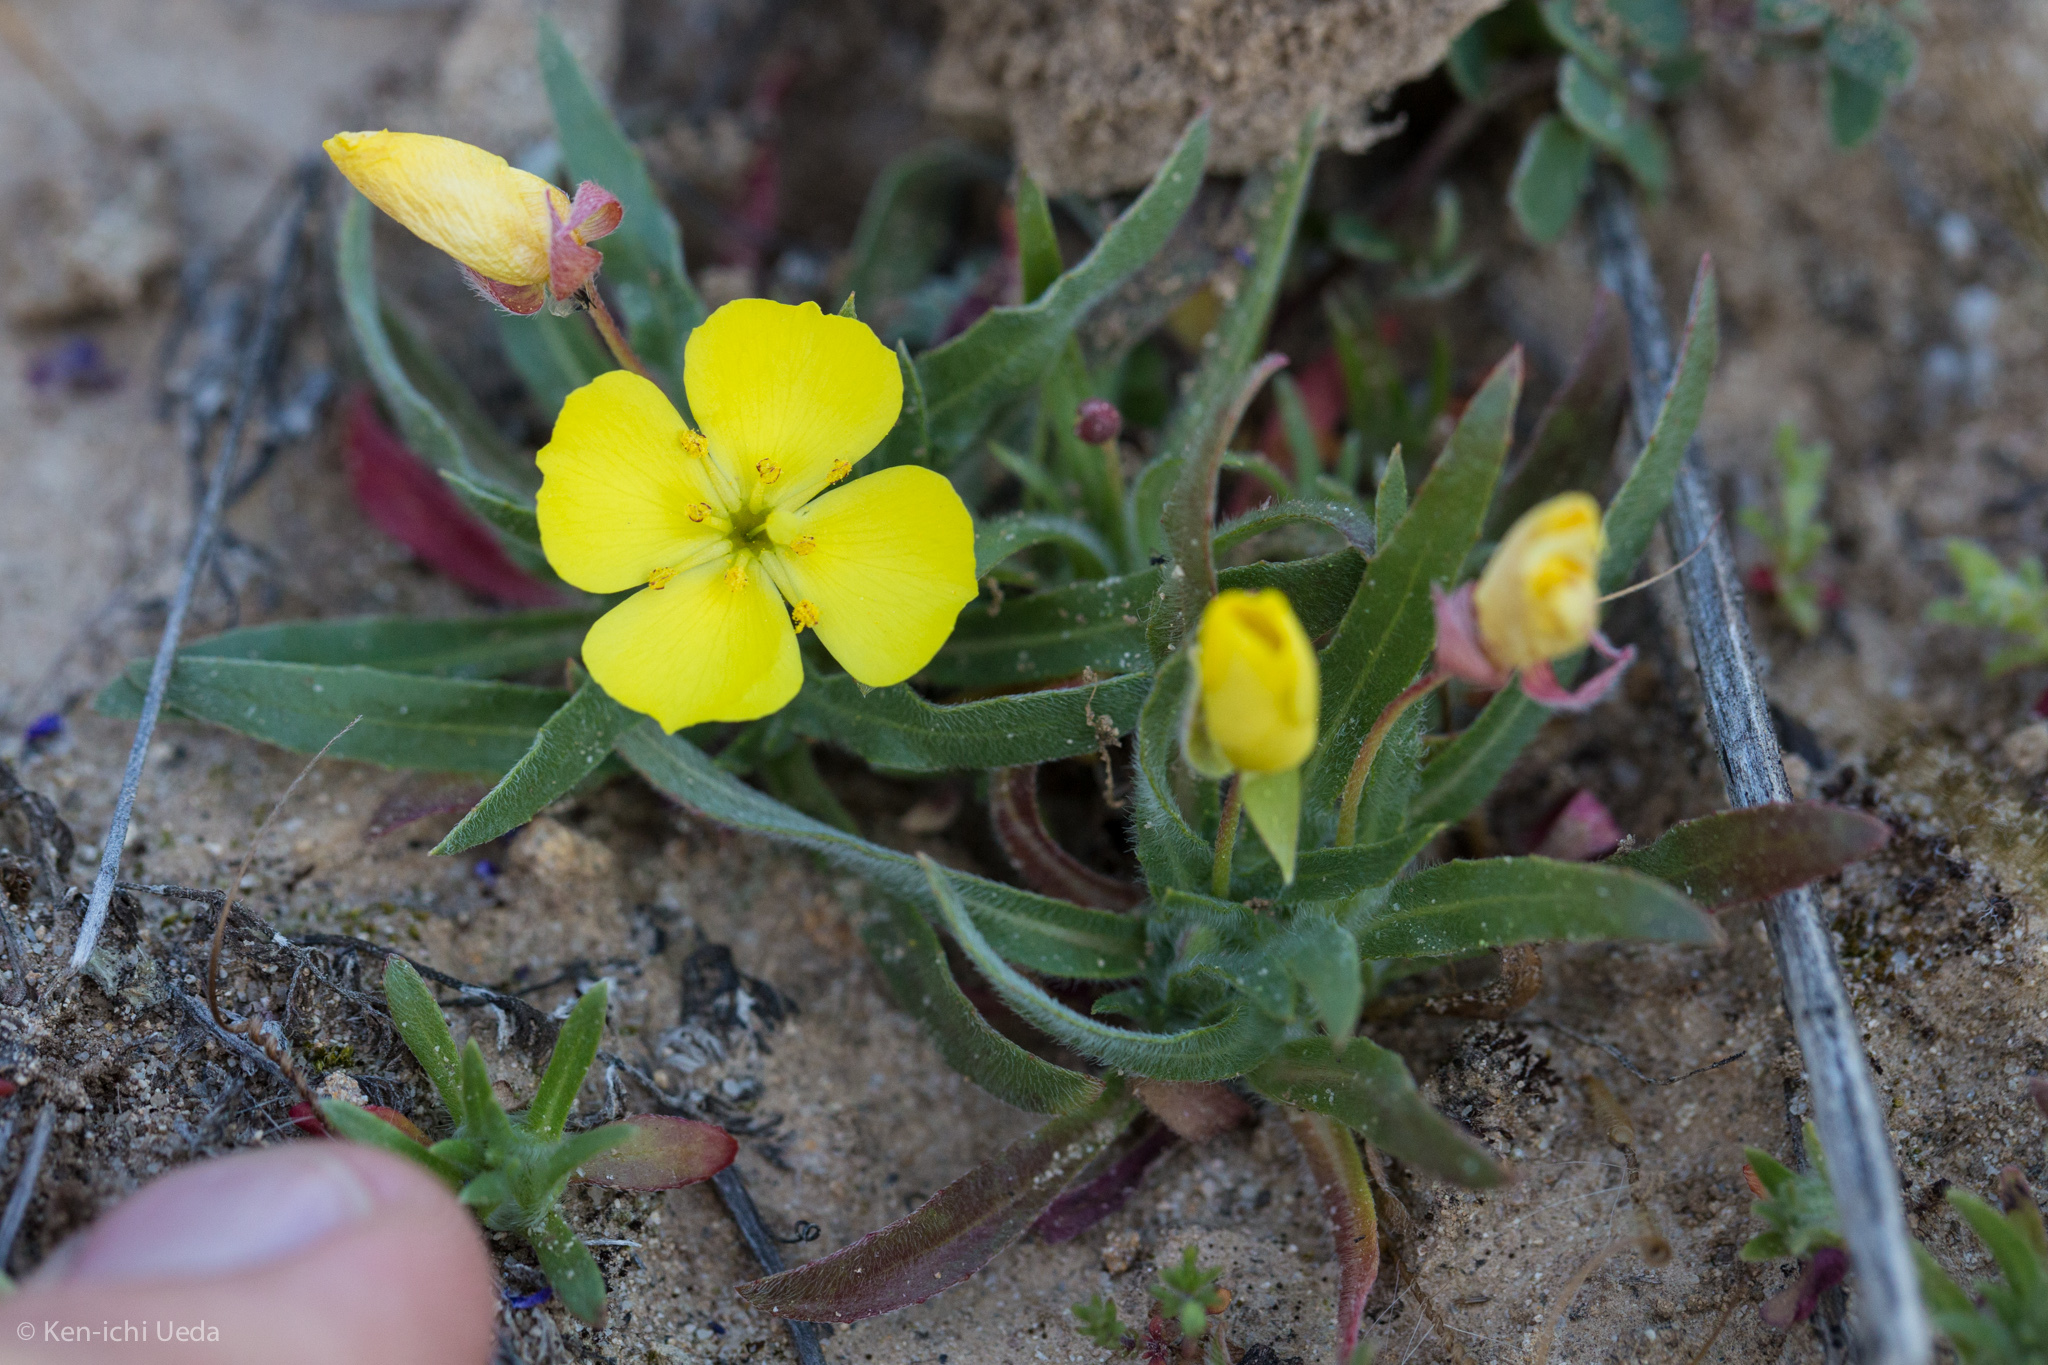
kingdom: Plantae
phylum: Tracheophyta
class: Magnoliopsida
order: Myrtales
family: Onagraceae
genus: Tetrapteron
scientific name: Tetrapteron graciliflorum
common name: Hill suncup
